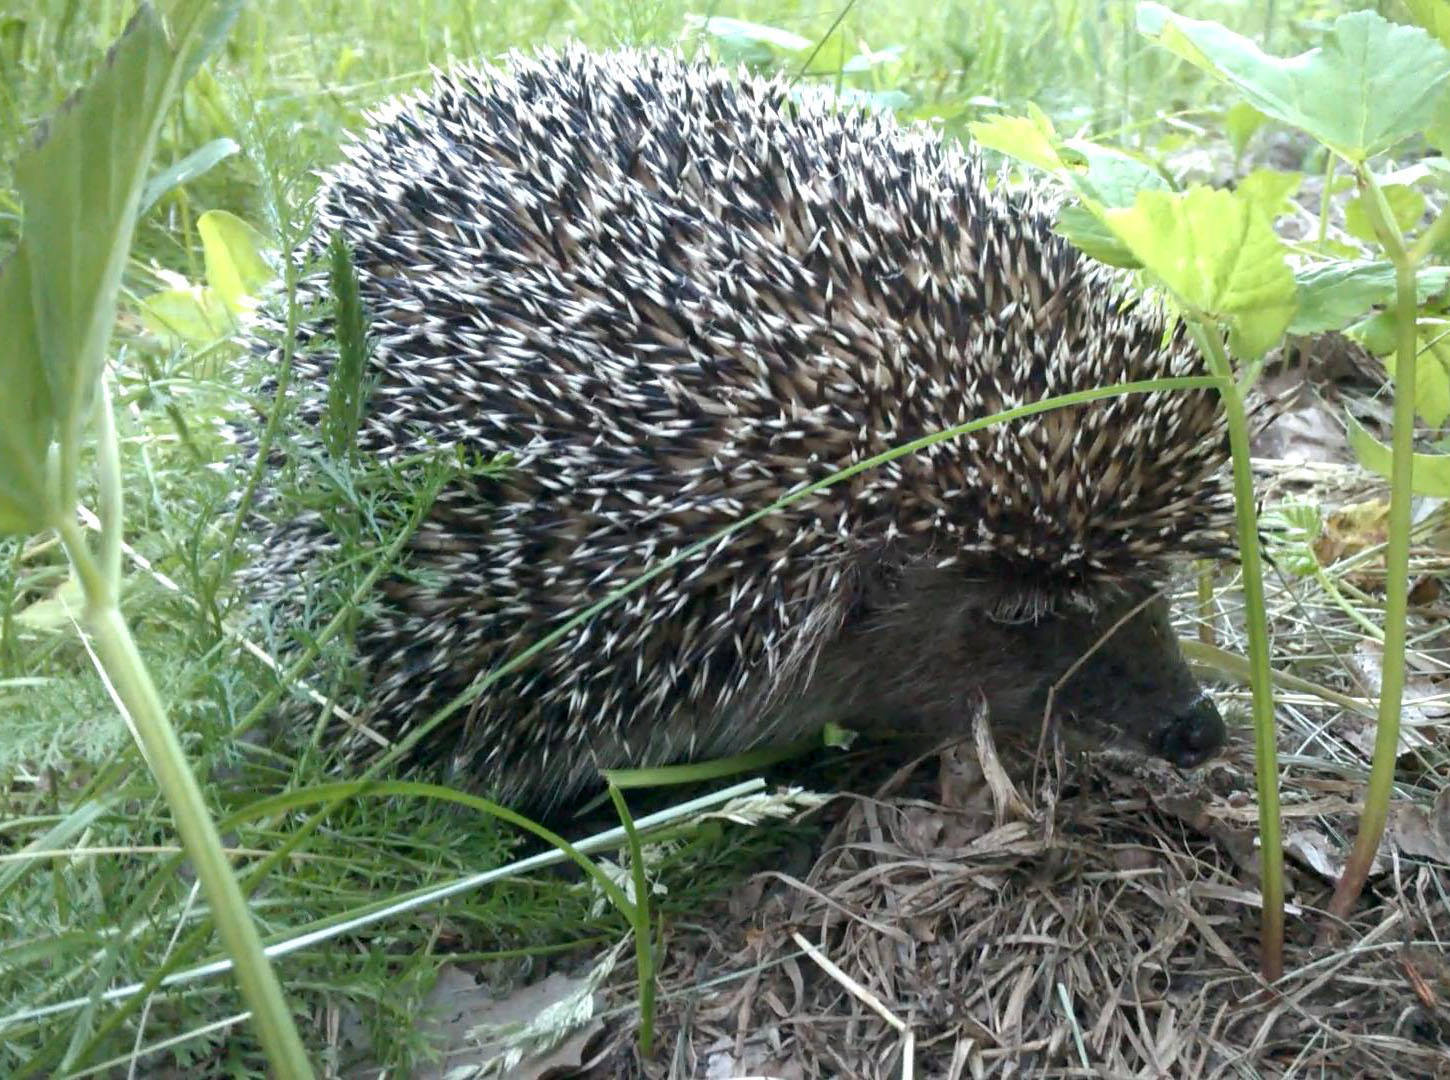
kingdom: Animalia
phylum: Chordata
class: Mammalia
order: Erinaceomorpha
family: Erinaceidae
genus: Erinaceus
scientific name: Erinaceus roumanicus
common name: Northern white-breasted hedgehog
